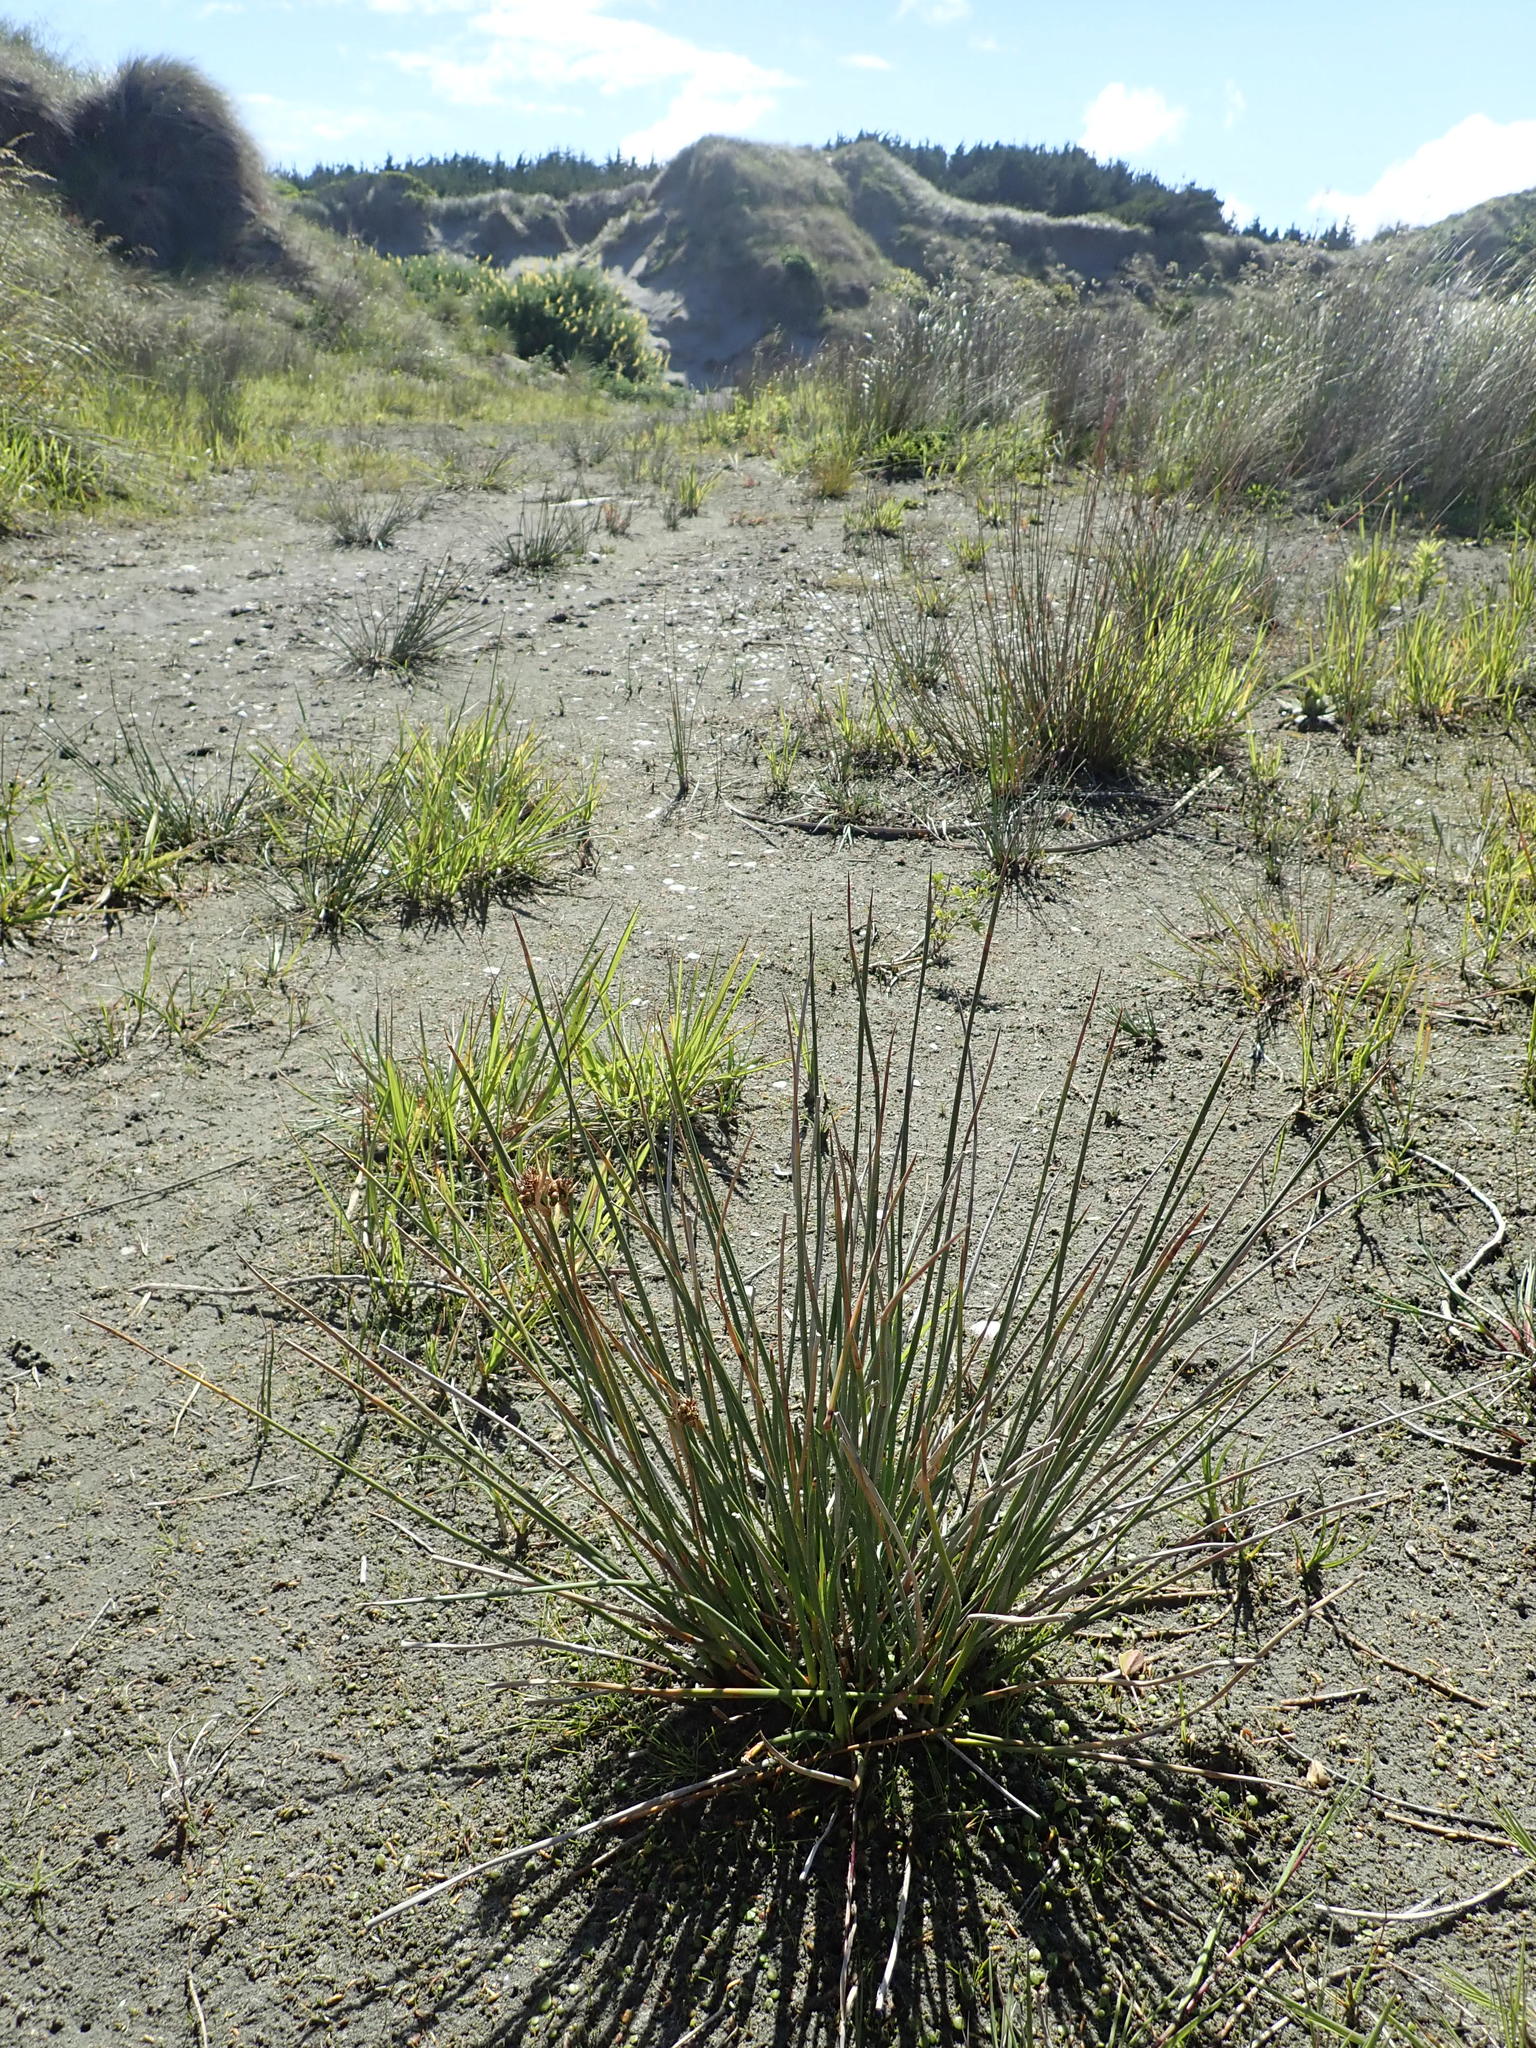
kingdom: Plantae
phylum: Tracheophyta
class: Liliopsida
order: Poales
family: Juncaceae
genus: Juncus
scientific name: Juncus acutus
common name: Sharp rush
